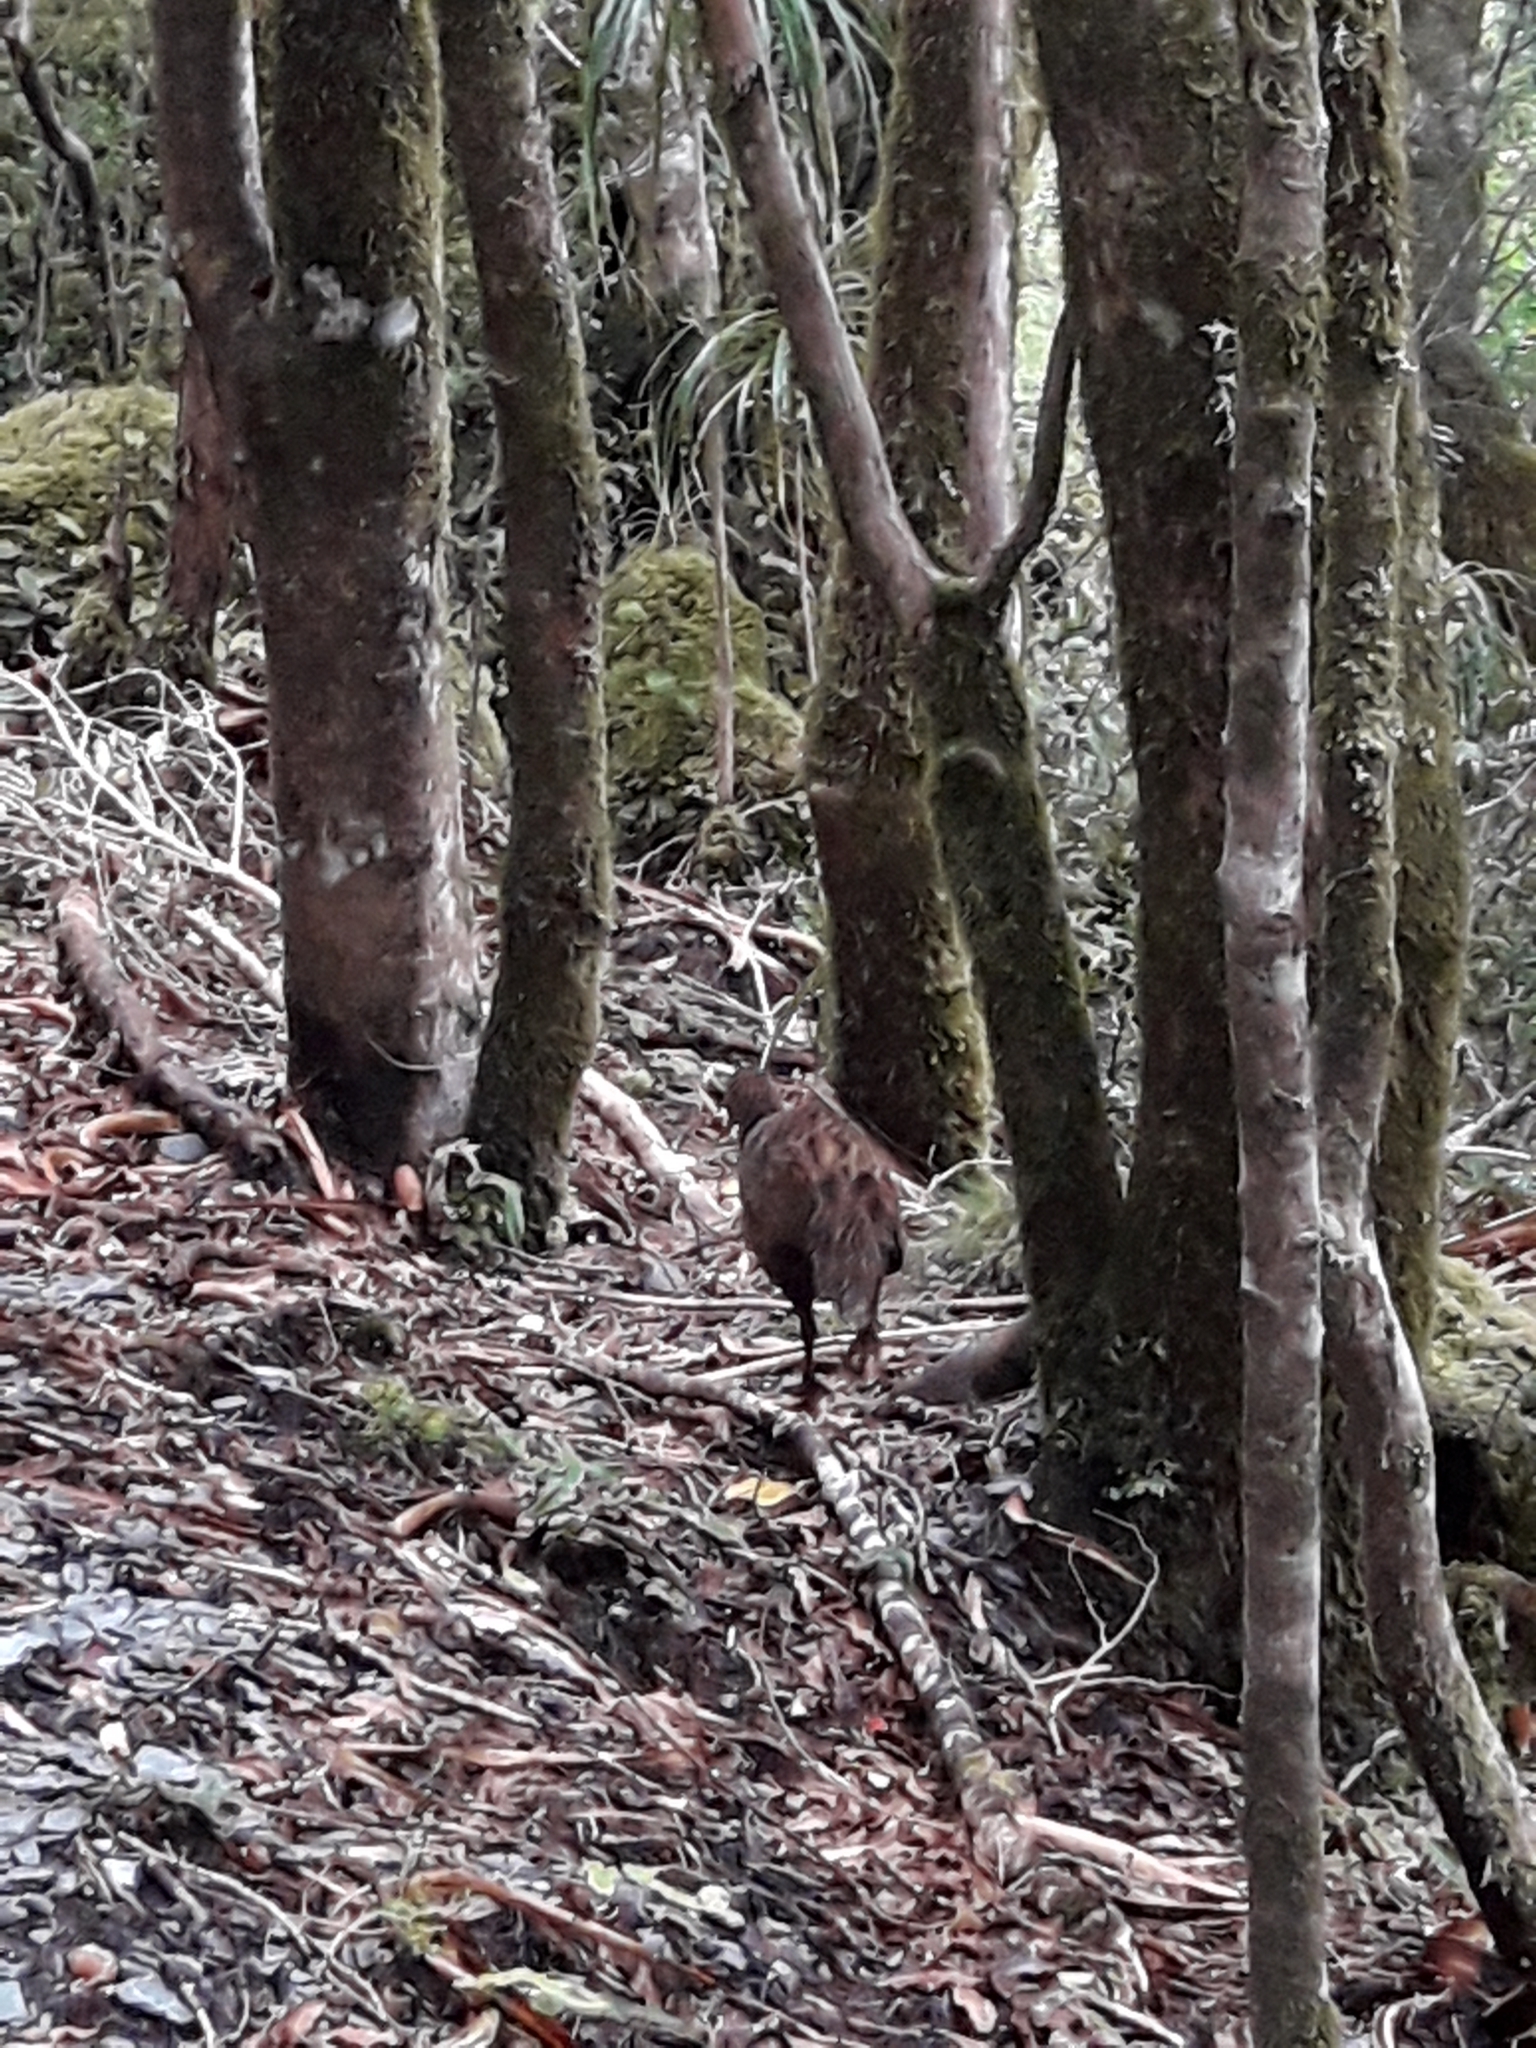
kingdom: Animalia
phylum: Chordata
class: Aves
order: Gruiformes
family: Rallidae
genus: Gallirallus
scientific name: Gallirallus australis
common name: Weka
